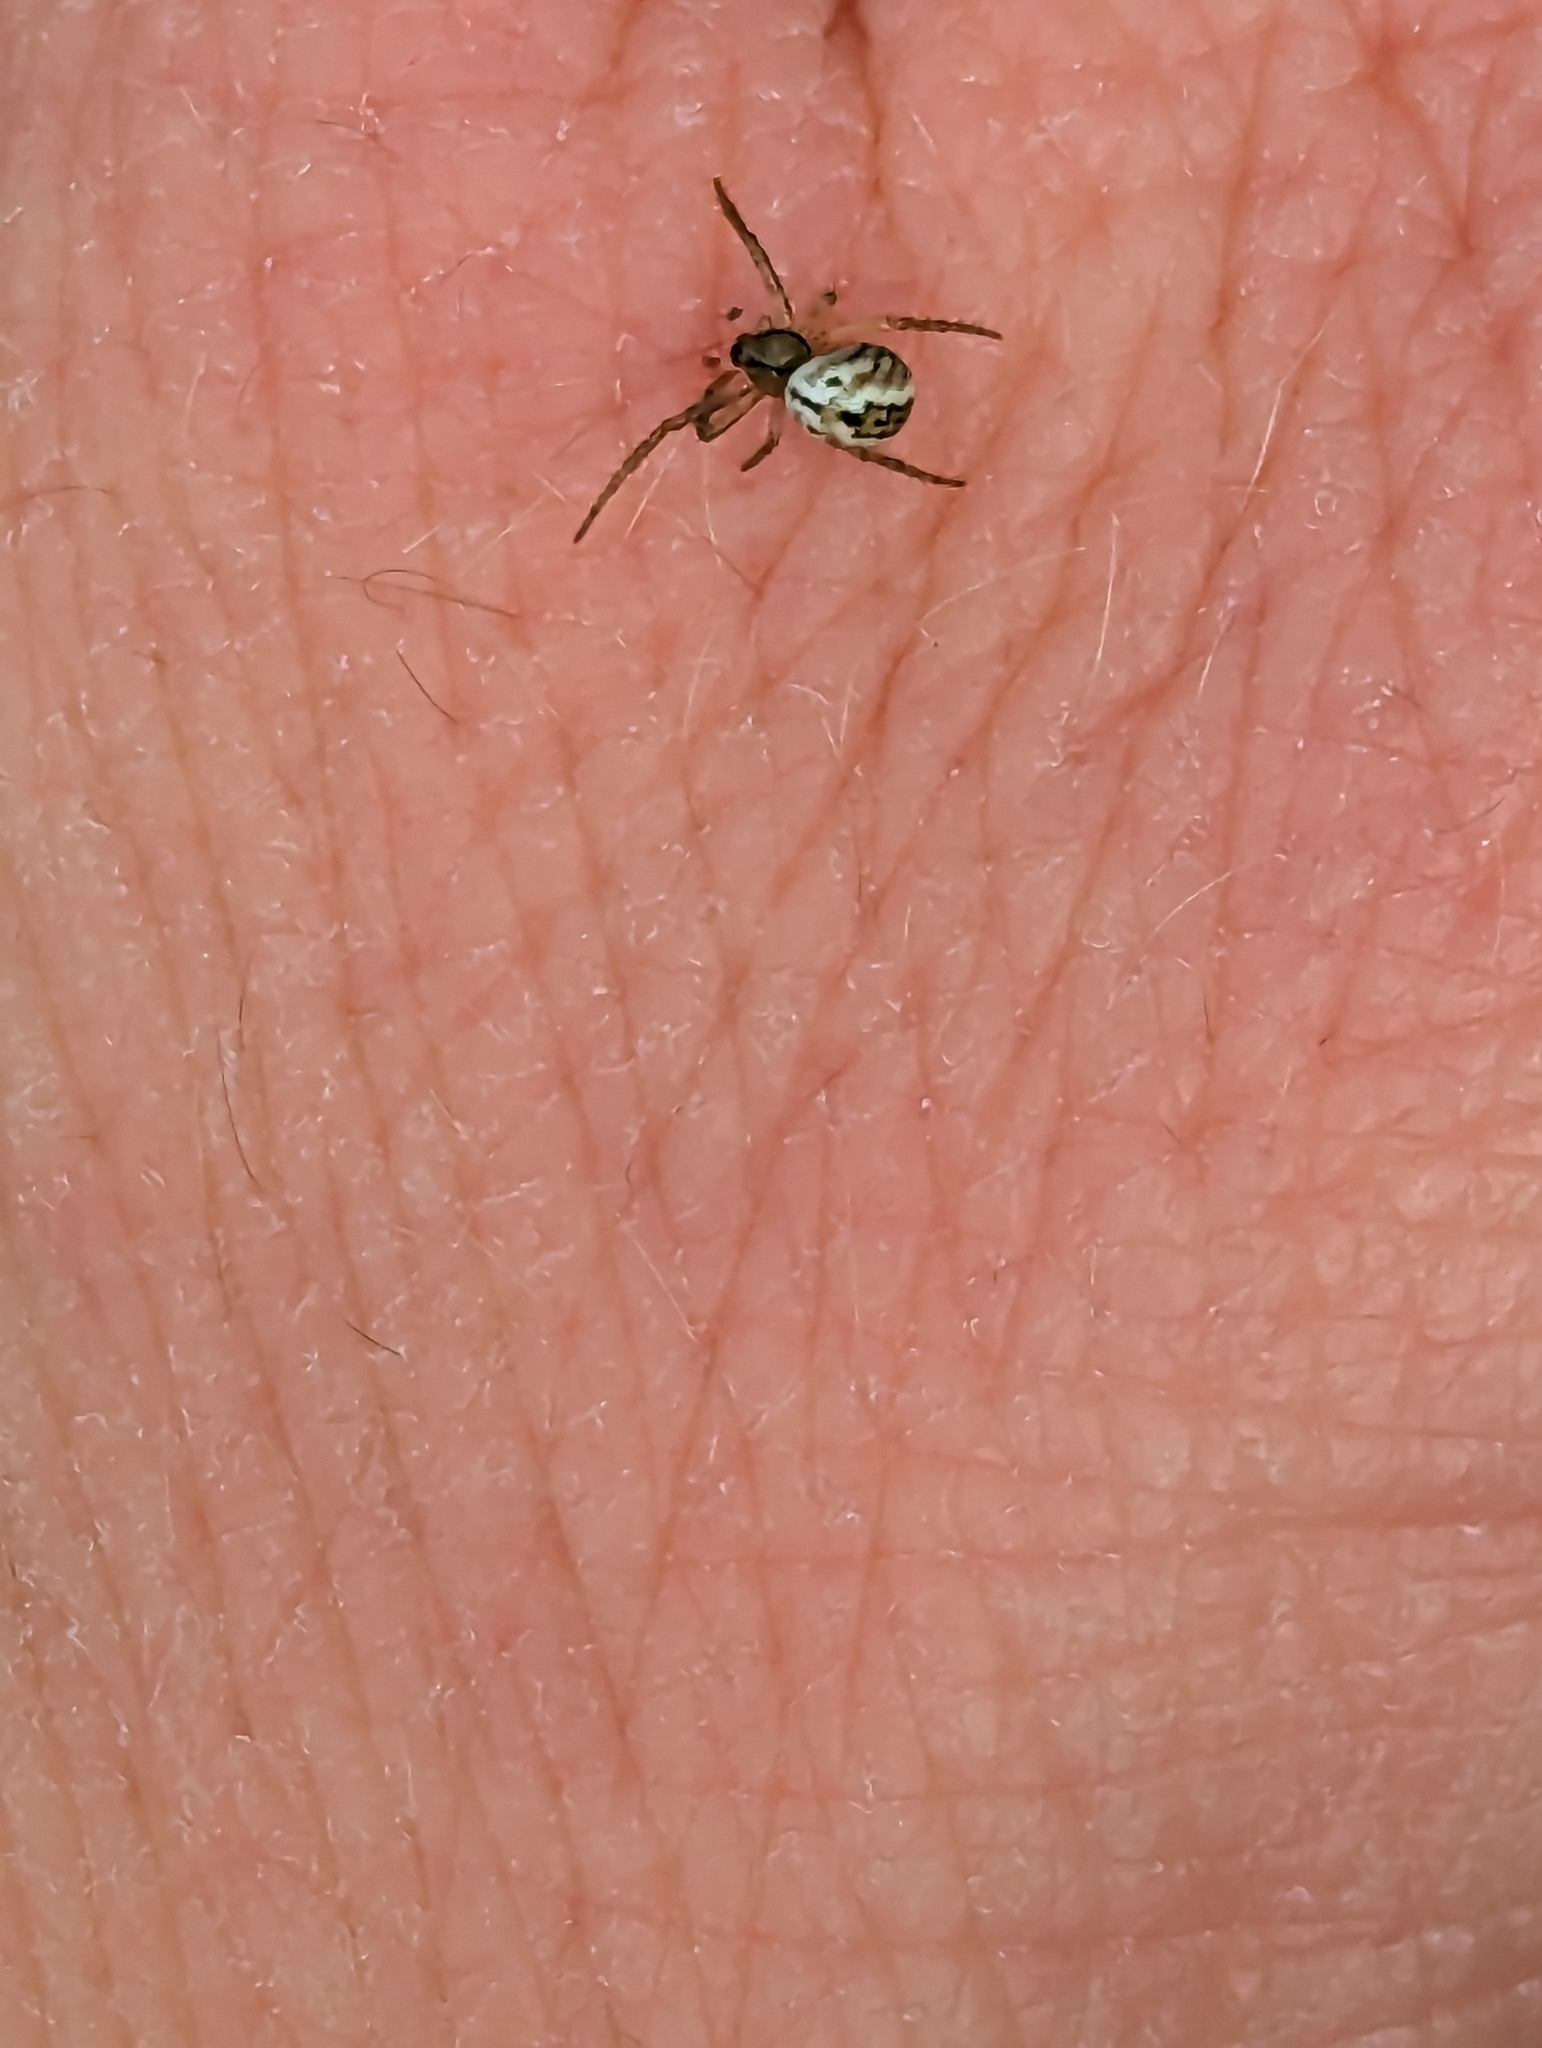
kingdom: Animalia
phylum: Arthropoda
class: Arachnida
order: Araneae
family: Araneidae
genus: Mangora
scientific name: Mangora acalypha
